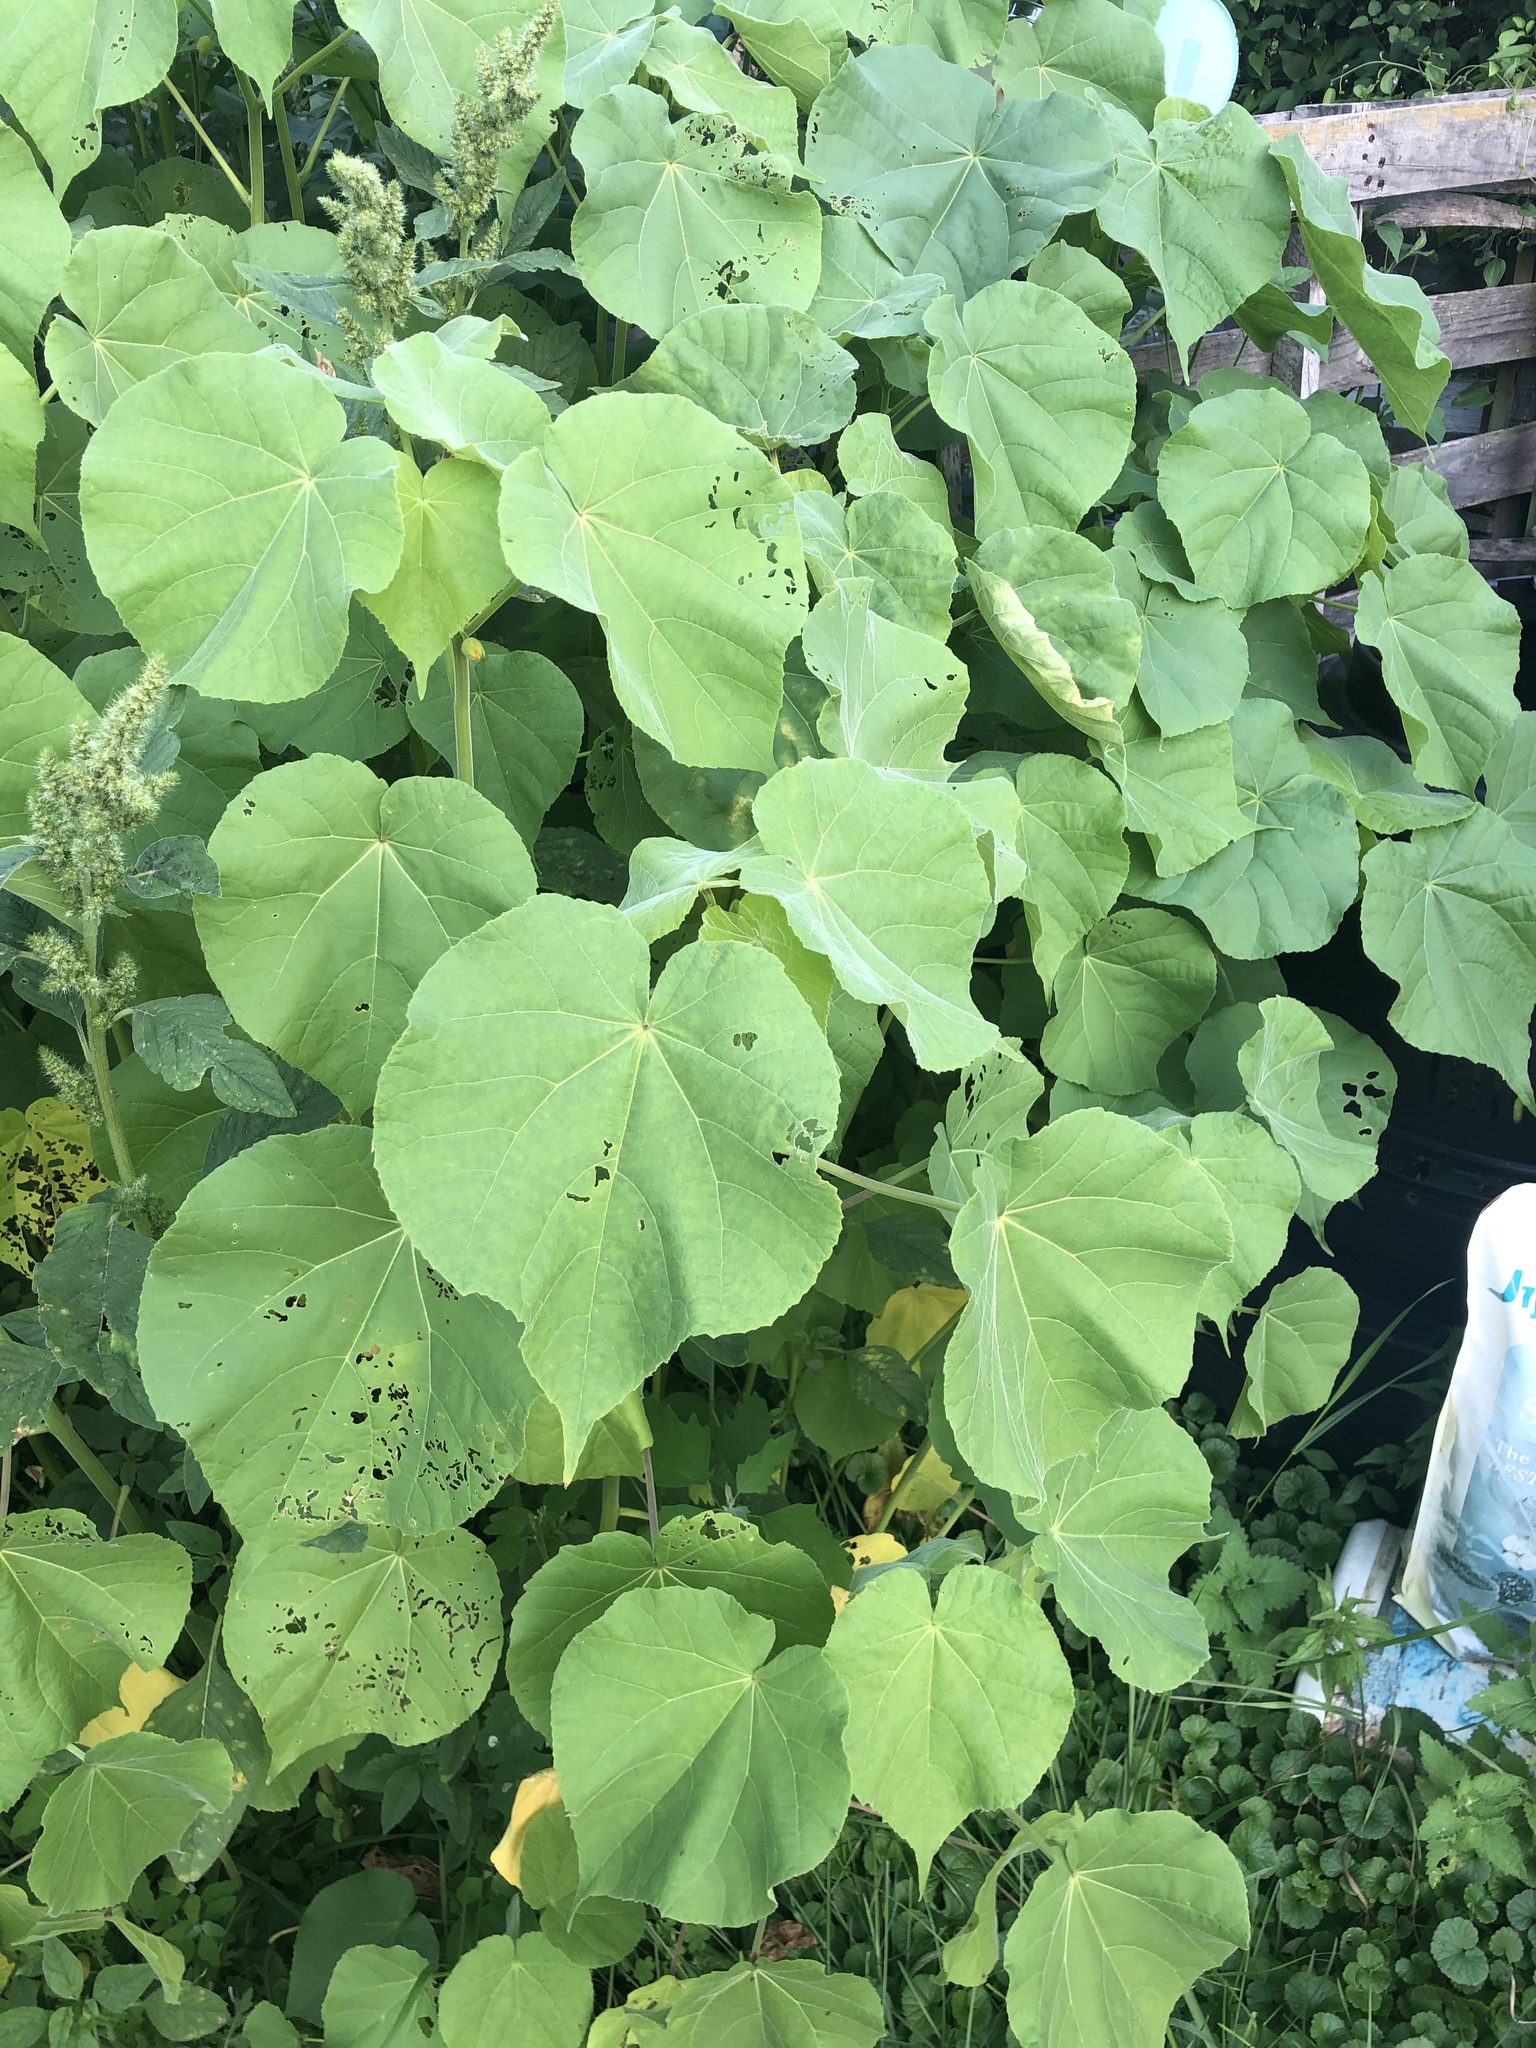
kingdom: Plantae
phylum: Tracheophyta
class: Magnoliopsida
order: Malvales
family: Malvaceae
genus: Abutilon
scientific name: Abutilon theophrasti
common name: Velvetleaf
